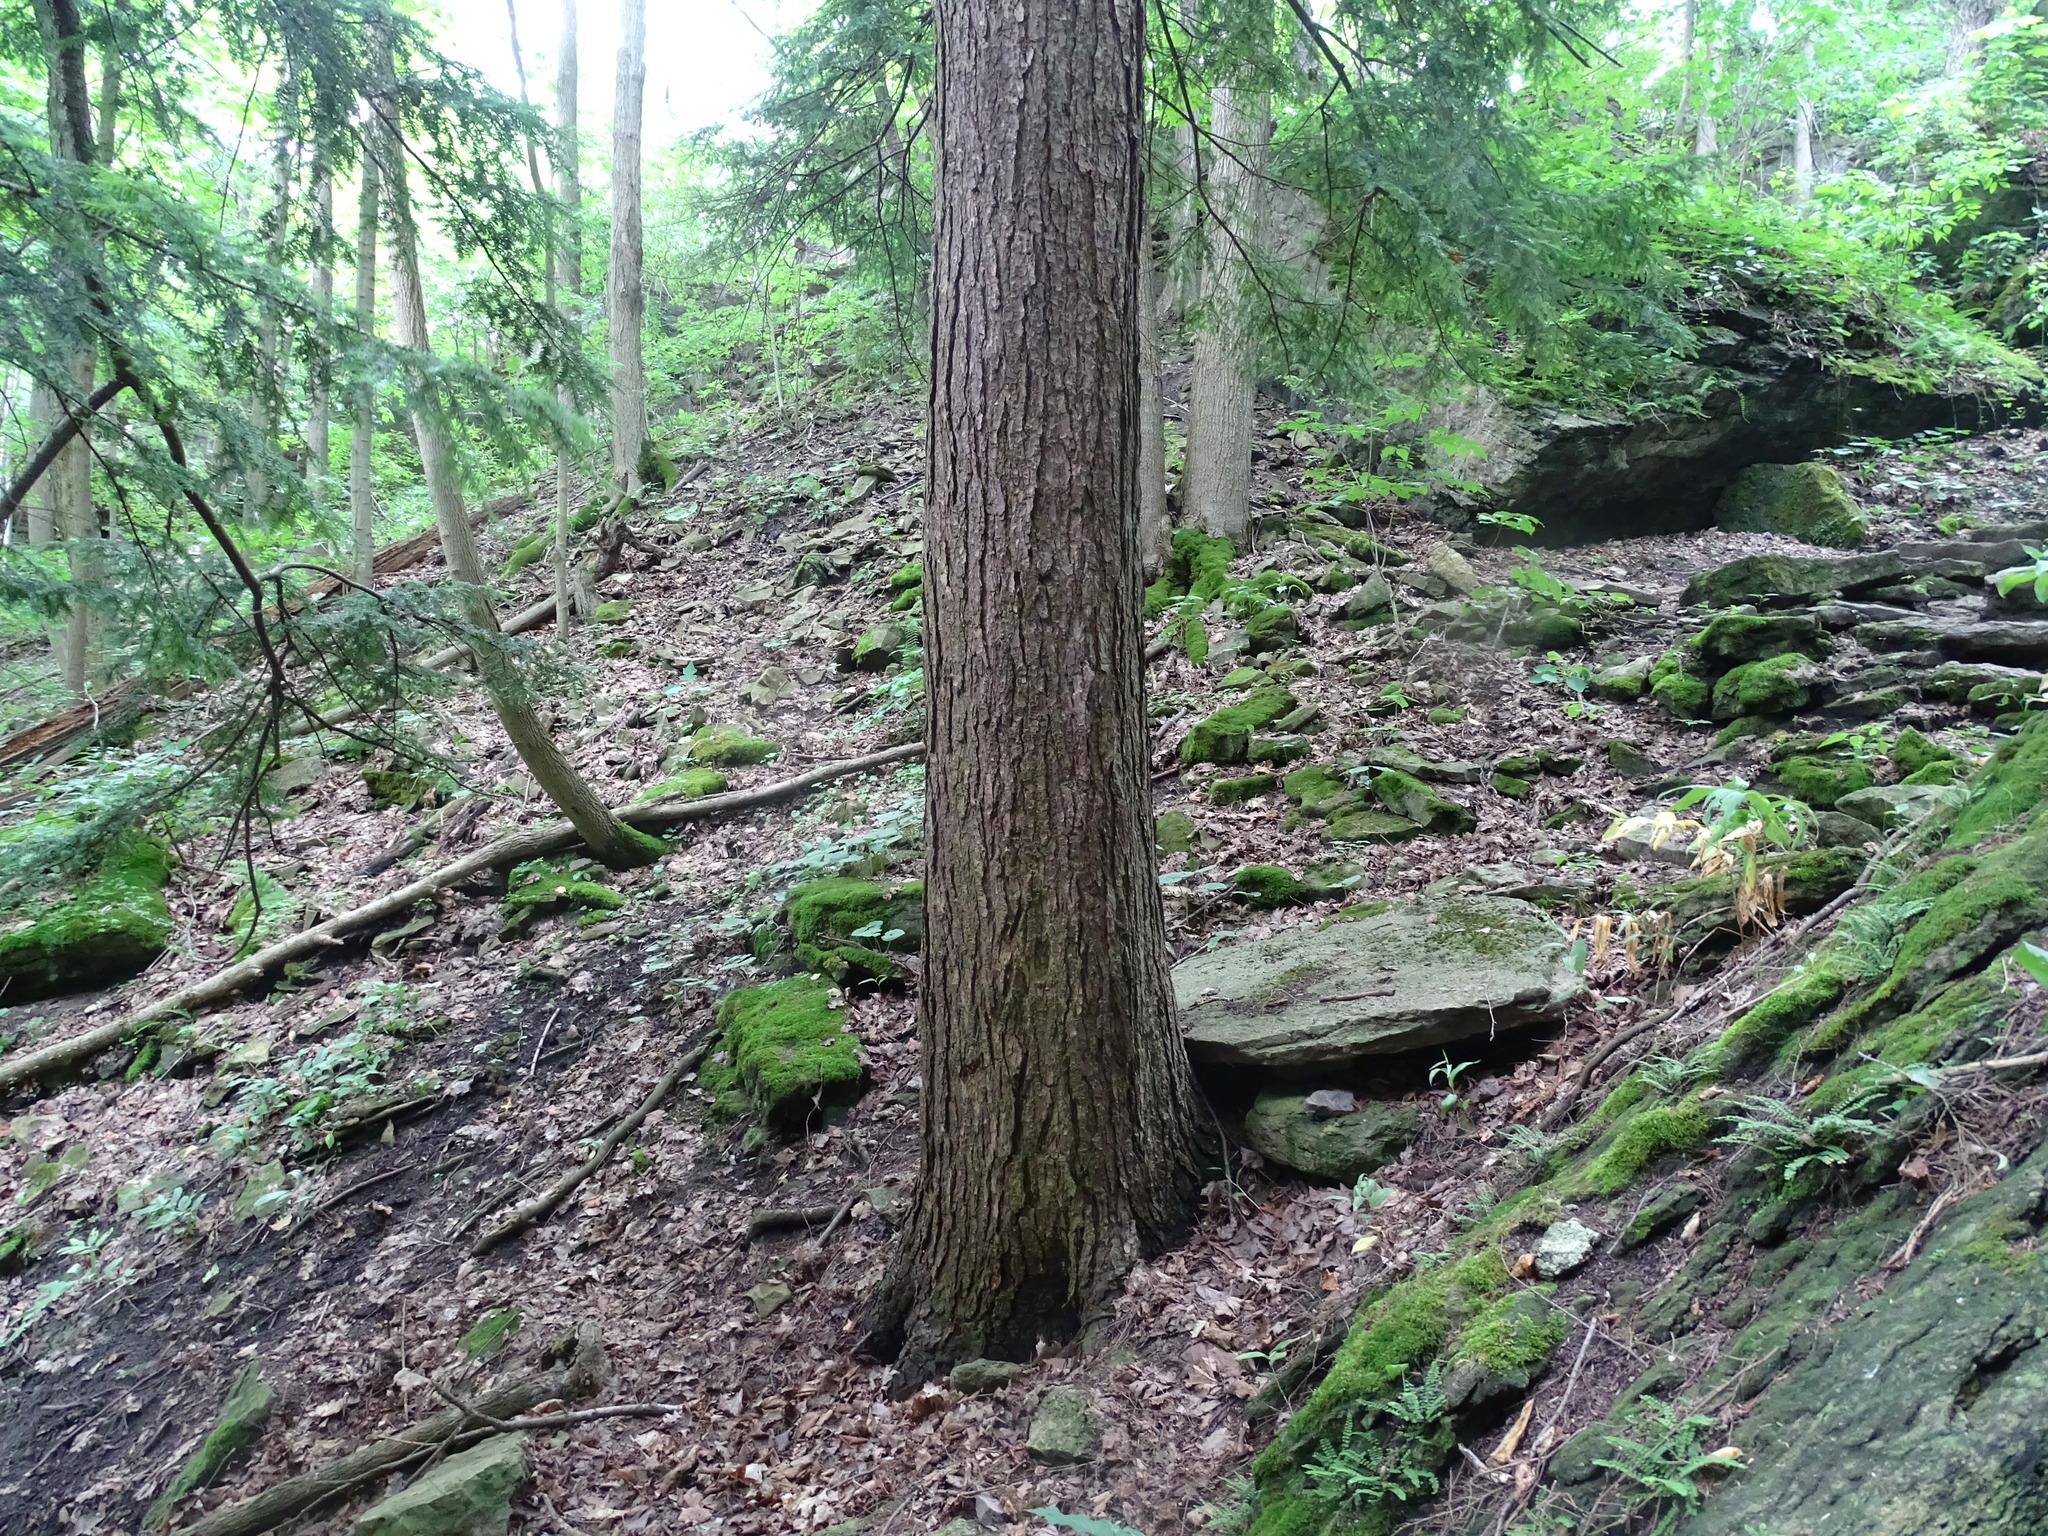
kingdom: Plantae
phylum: Tracheophyta
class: Pinopsida
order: Pinales
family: Pinaceae
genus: Tsuga
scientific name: Tsuga canadensis
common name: Eastern hemlock
